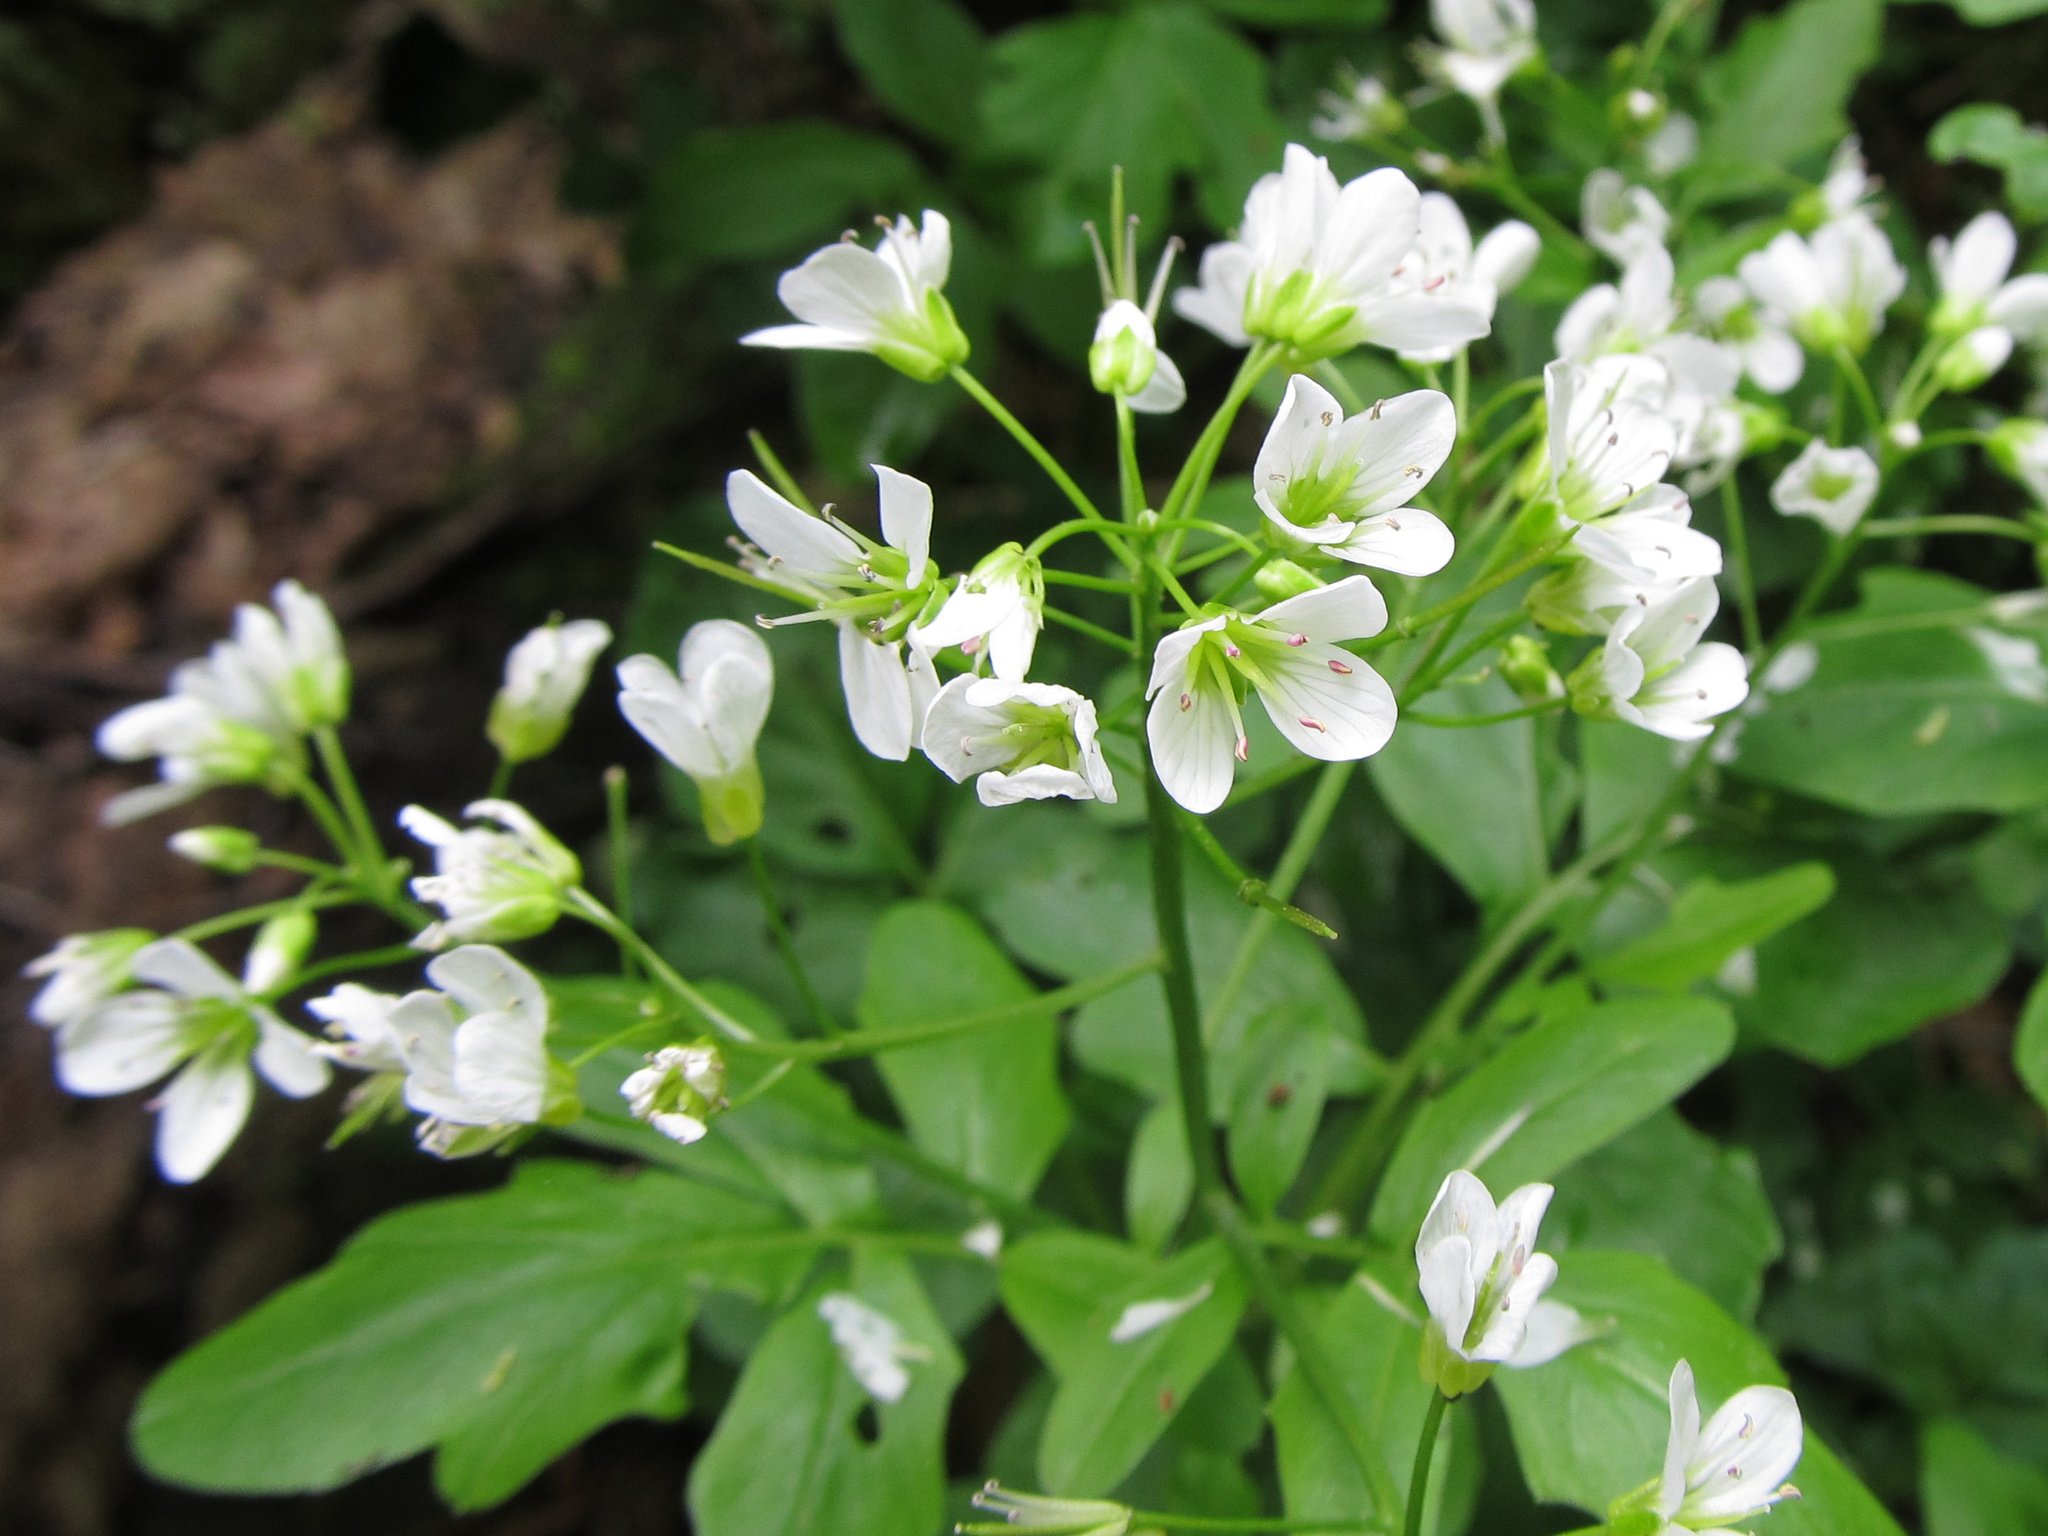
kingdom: Plantae
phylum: Tracheophyta
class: Magnoliopsida
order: Brassicales
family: Brassicaceae
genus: Cardamine
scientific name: Cardamine amara
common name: Large bitter-cress
